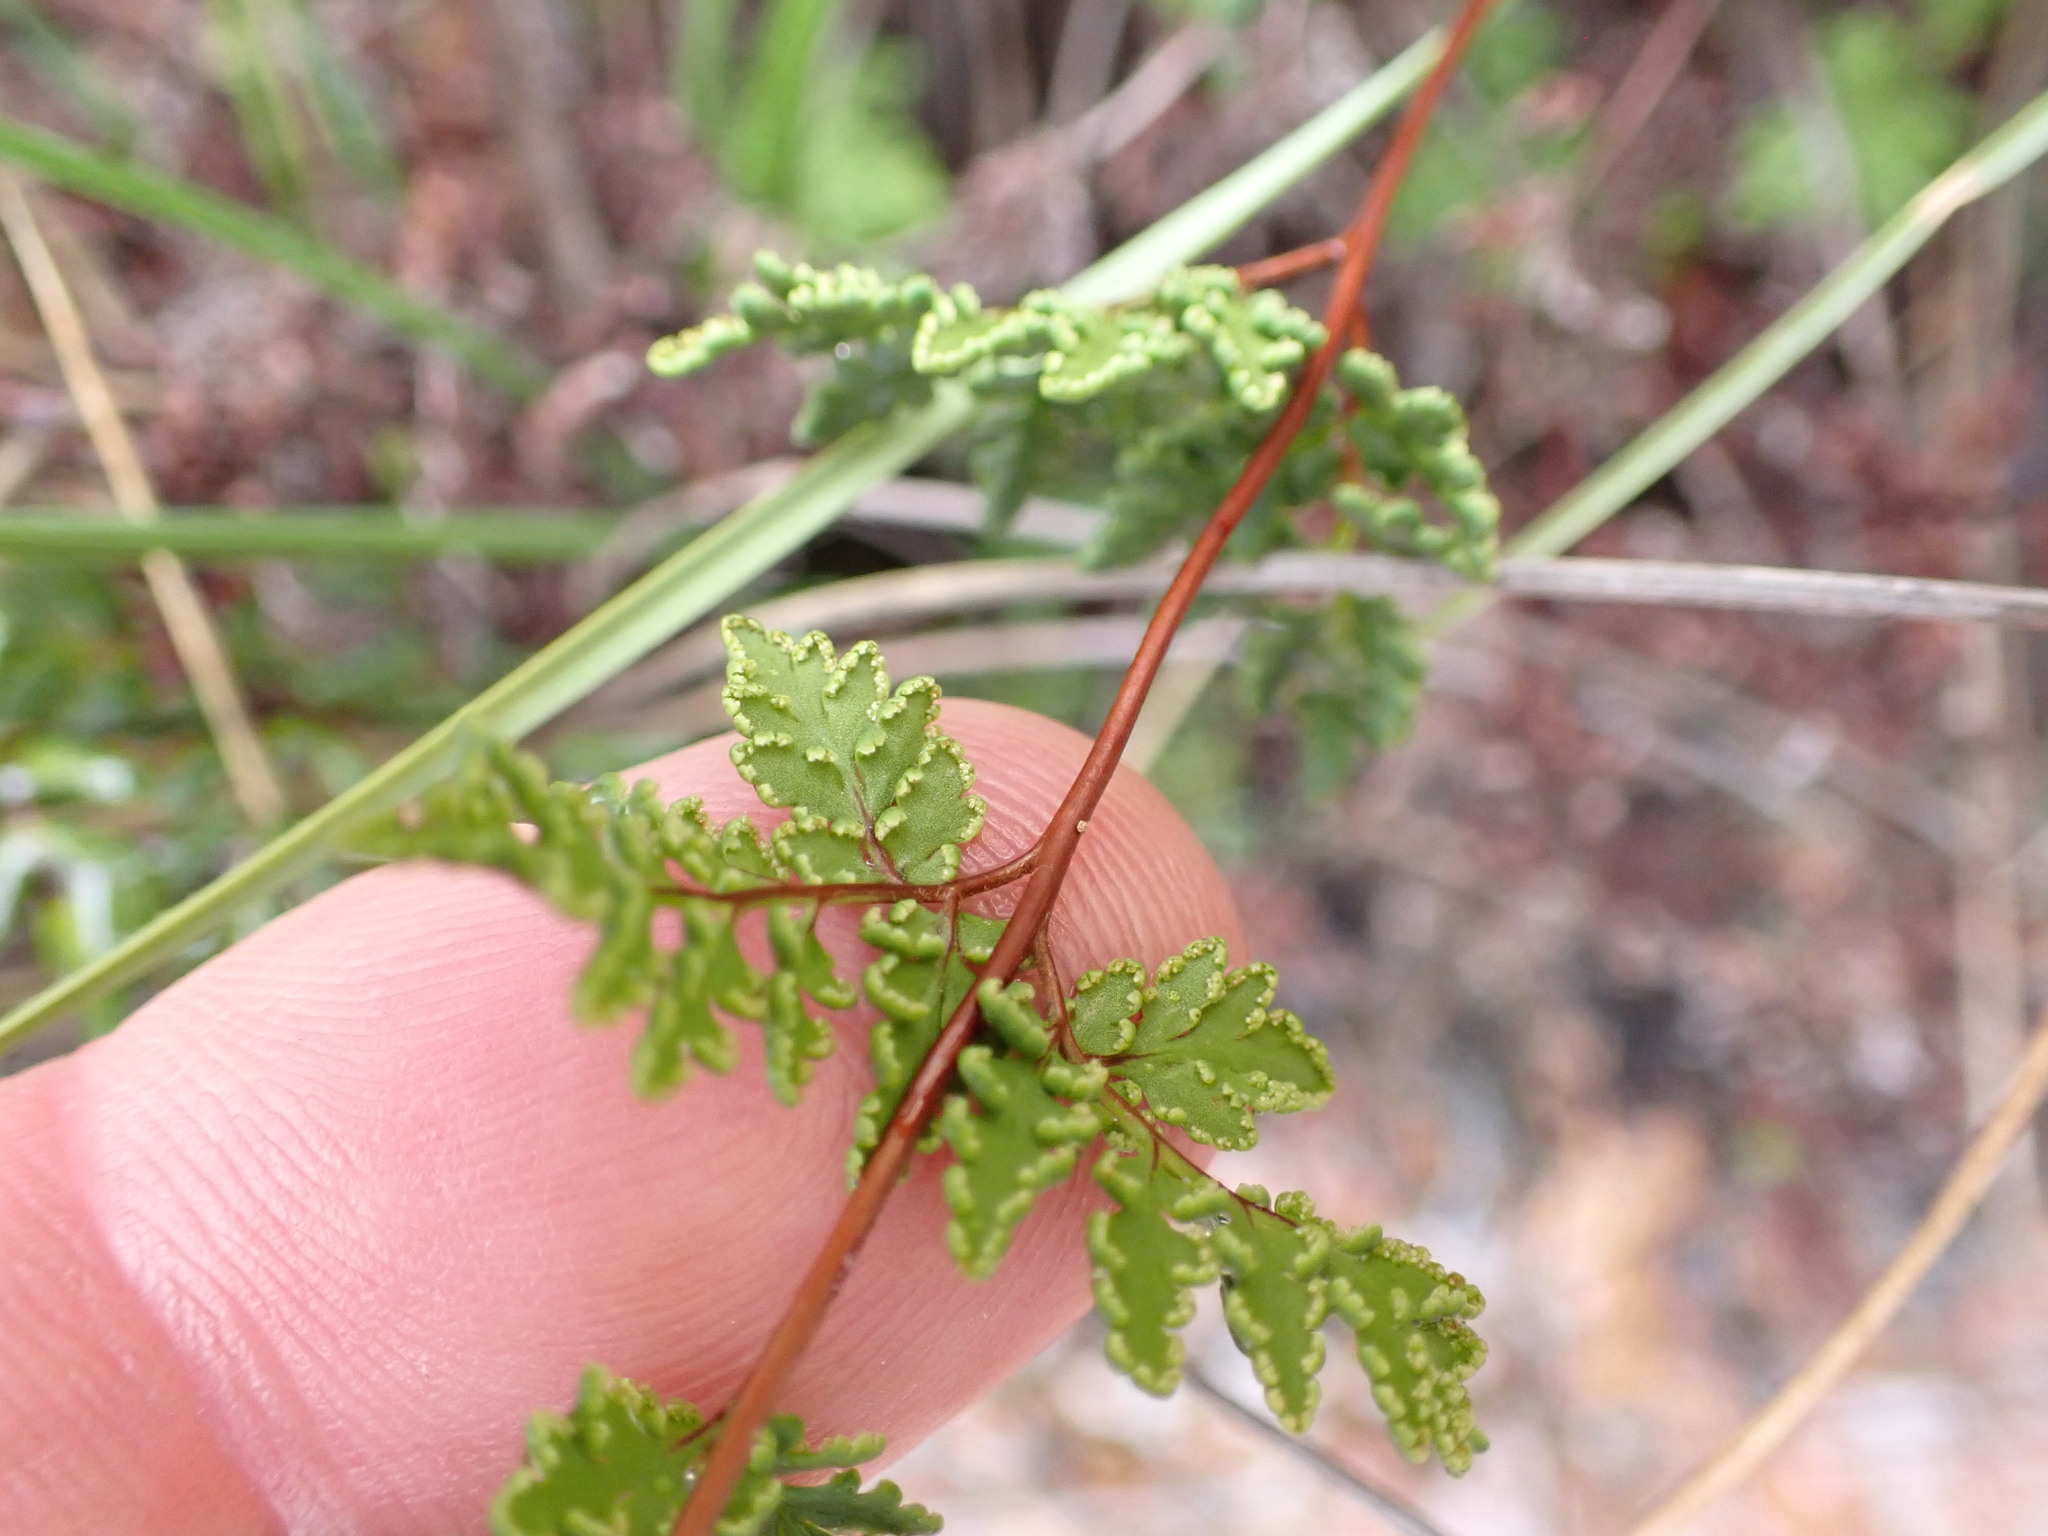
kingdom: Plantae
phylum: Tracheophyta
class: Polypodiopsida
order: Polypodiales
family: Pteridaceae
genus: Cheilanthes
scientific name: Cheilanthes sieberi
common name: Mulga fern
